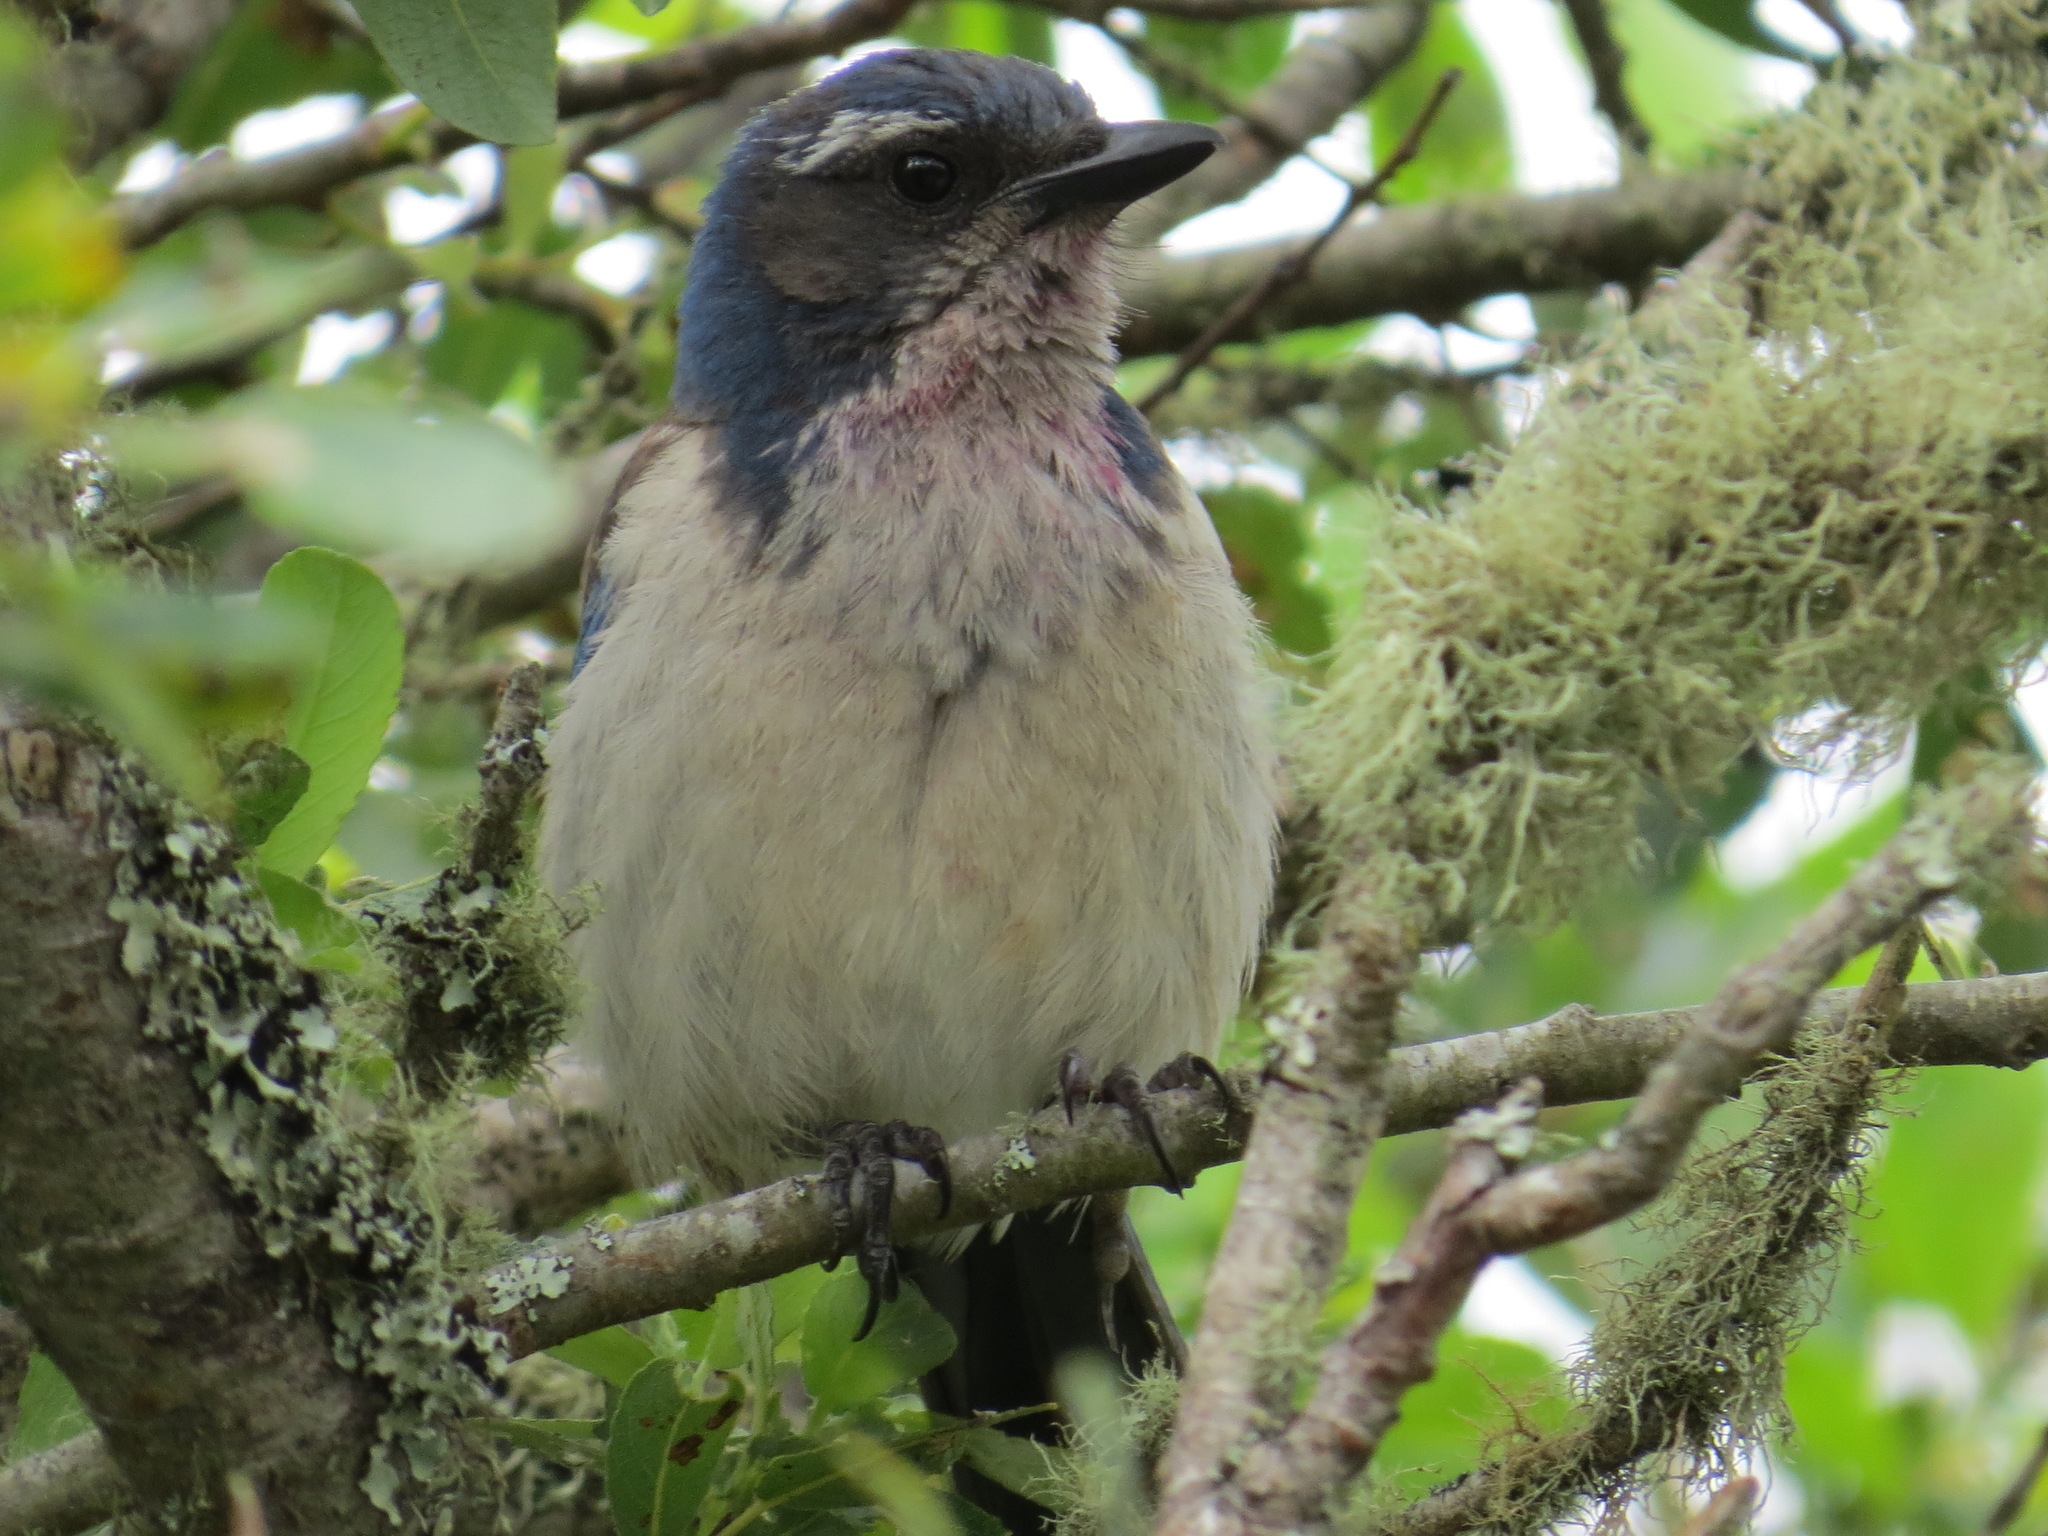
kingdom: Animalia
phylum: Chordata
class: Aves
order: Passeriformes
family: Corvidae
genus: Aphelocoma
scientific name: Aphelocoma californica
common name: California scrub-jay
